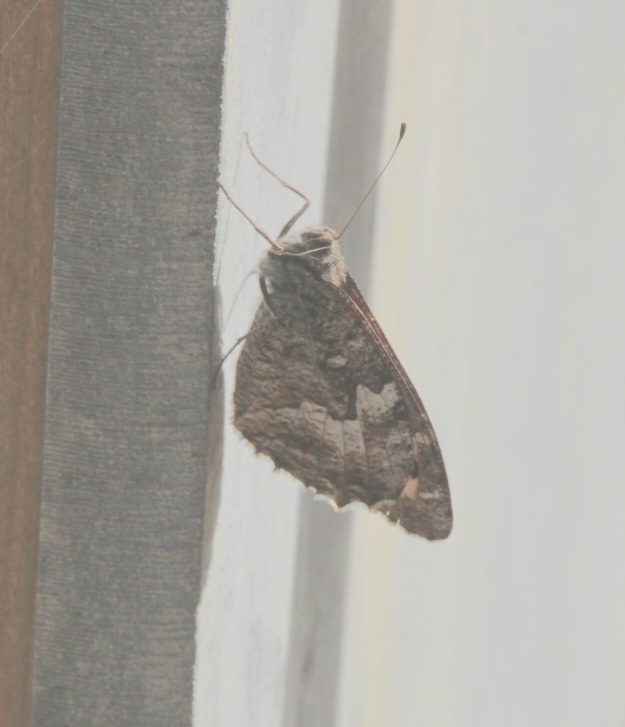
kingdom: Animalia
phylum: Arthropoda
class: Insecta
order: Lepidoptera
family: Nymphalidae
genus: Hipparchia
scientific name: Hipparchia semele
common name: Grayling
